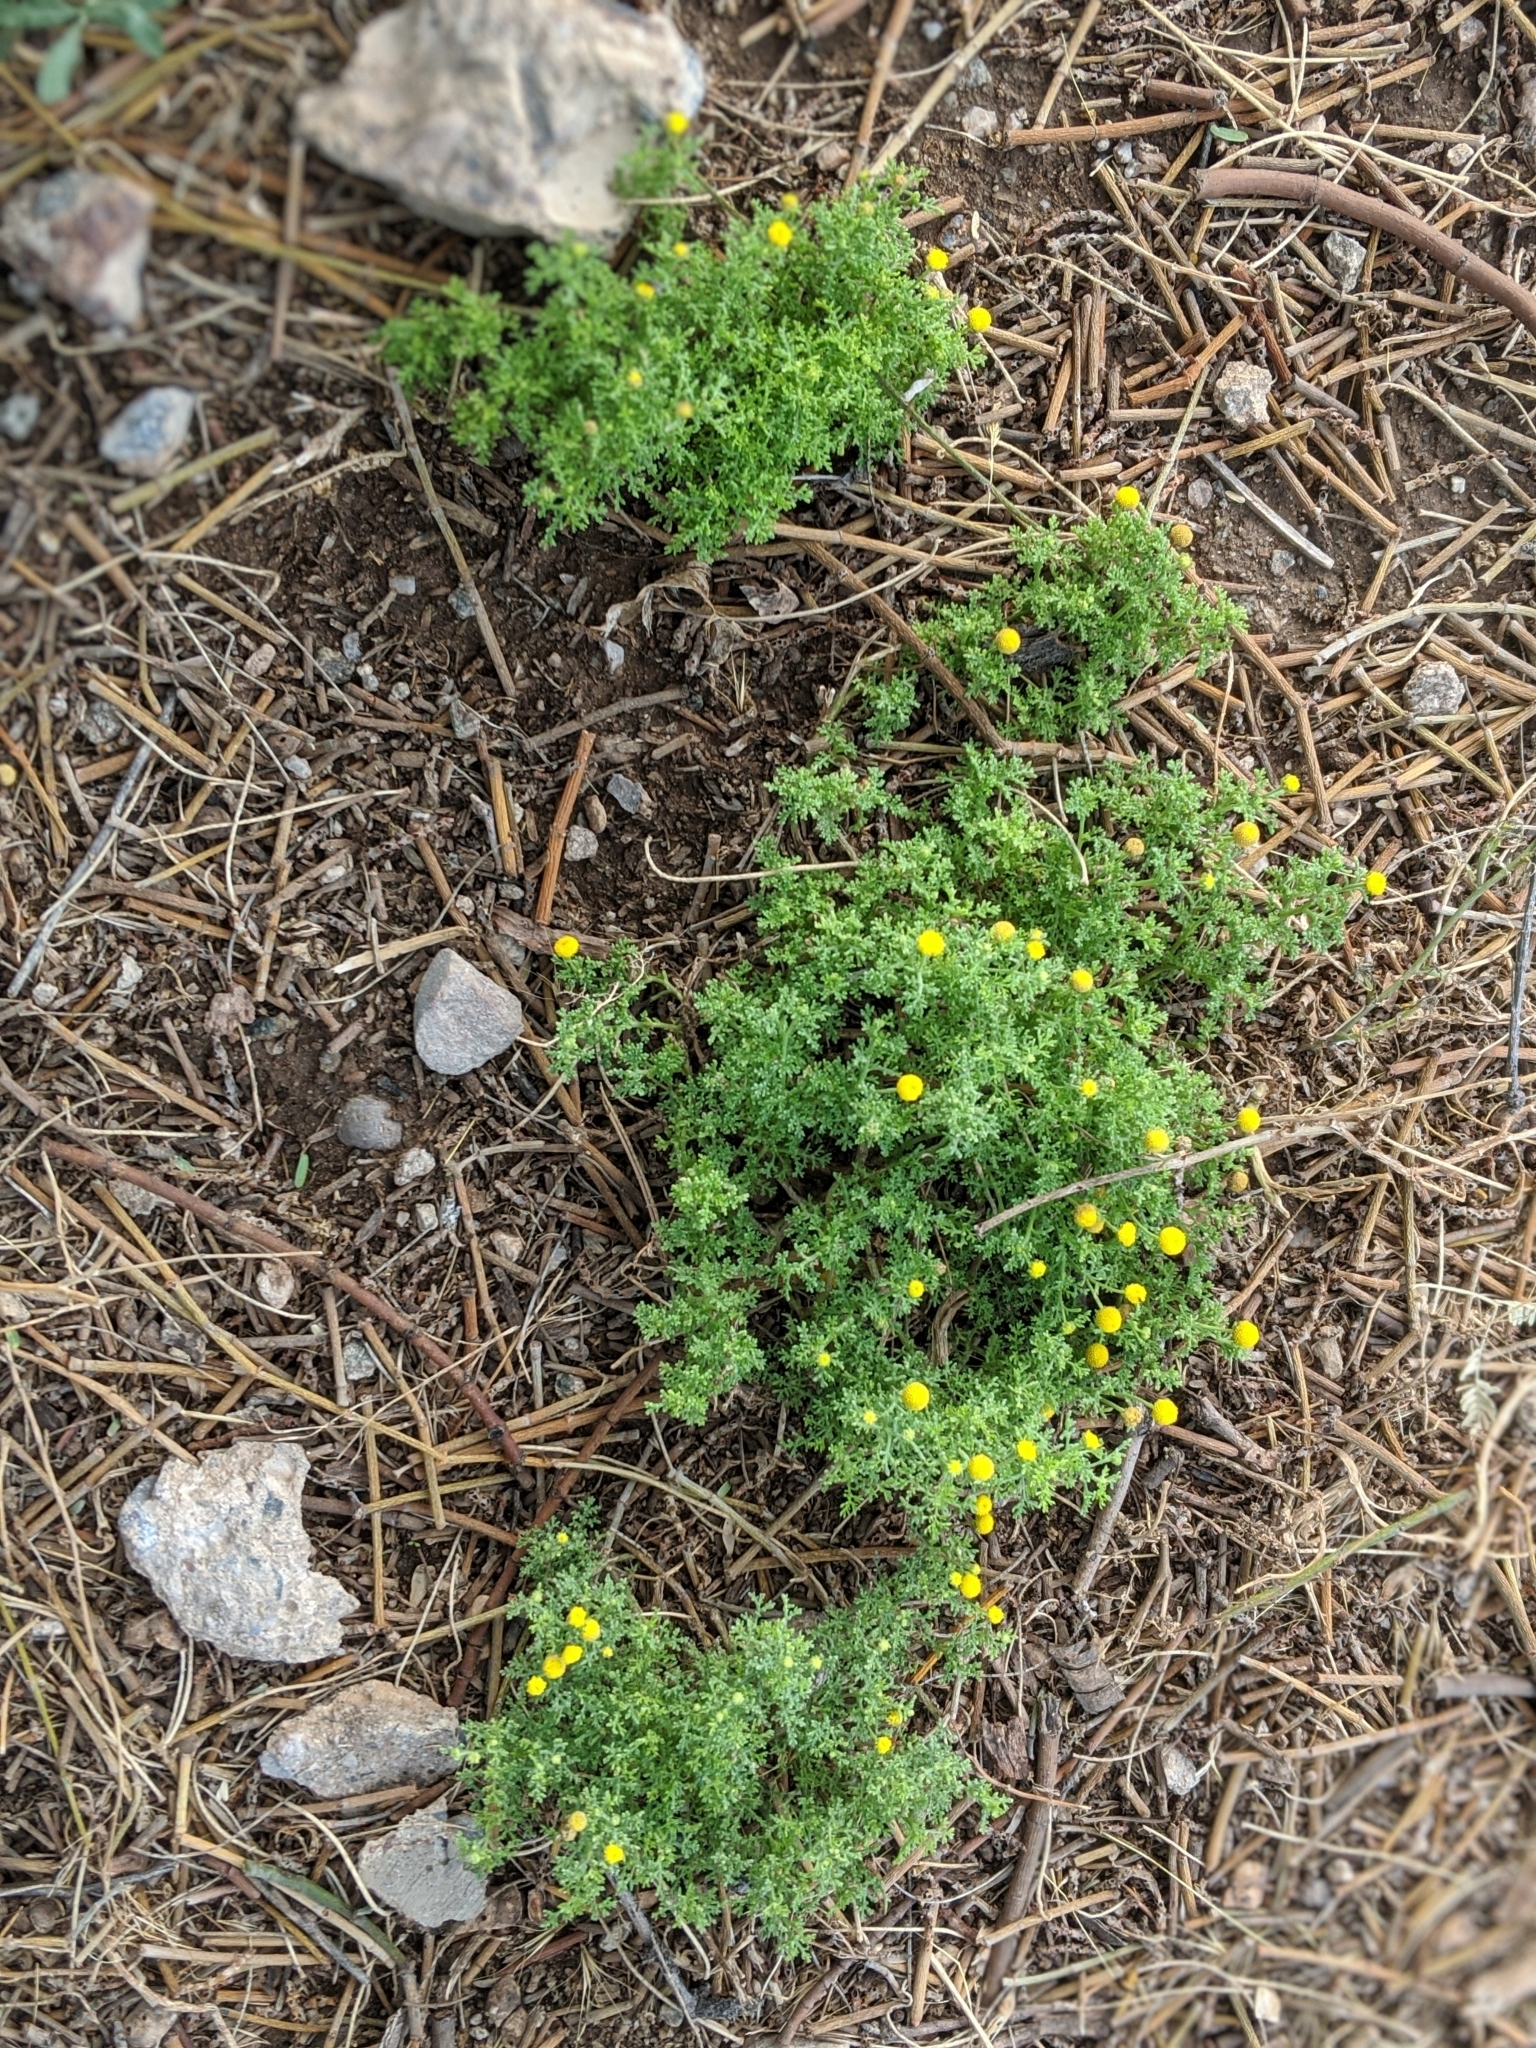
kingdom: Plantae
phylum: Tracheophyta
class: Magnoliopsida
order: Asterales
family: Asteraceae
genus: Oncosiphon
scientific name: Oncosiphon pilulifer
